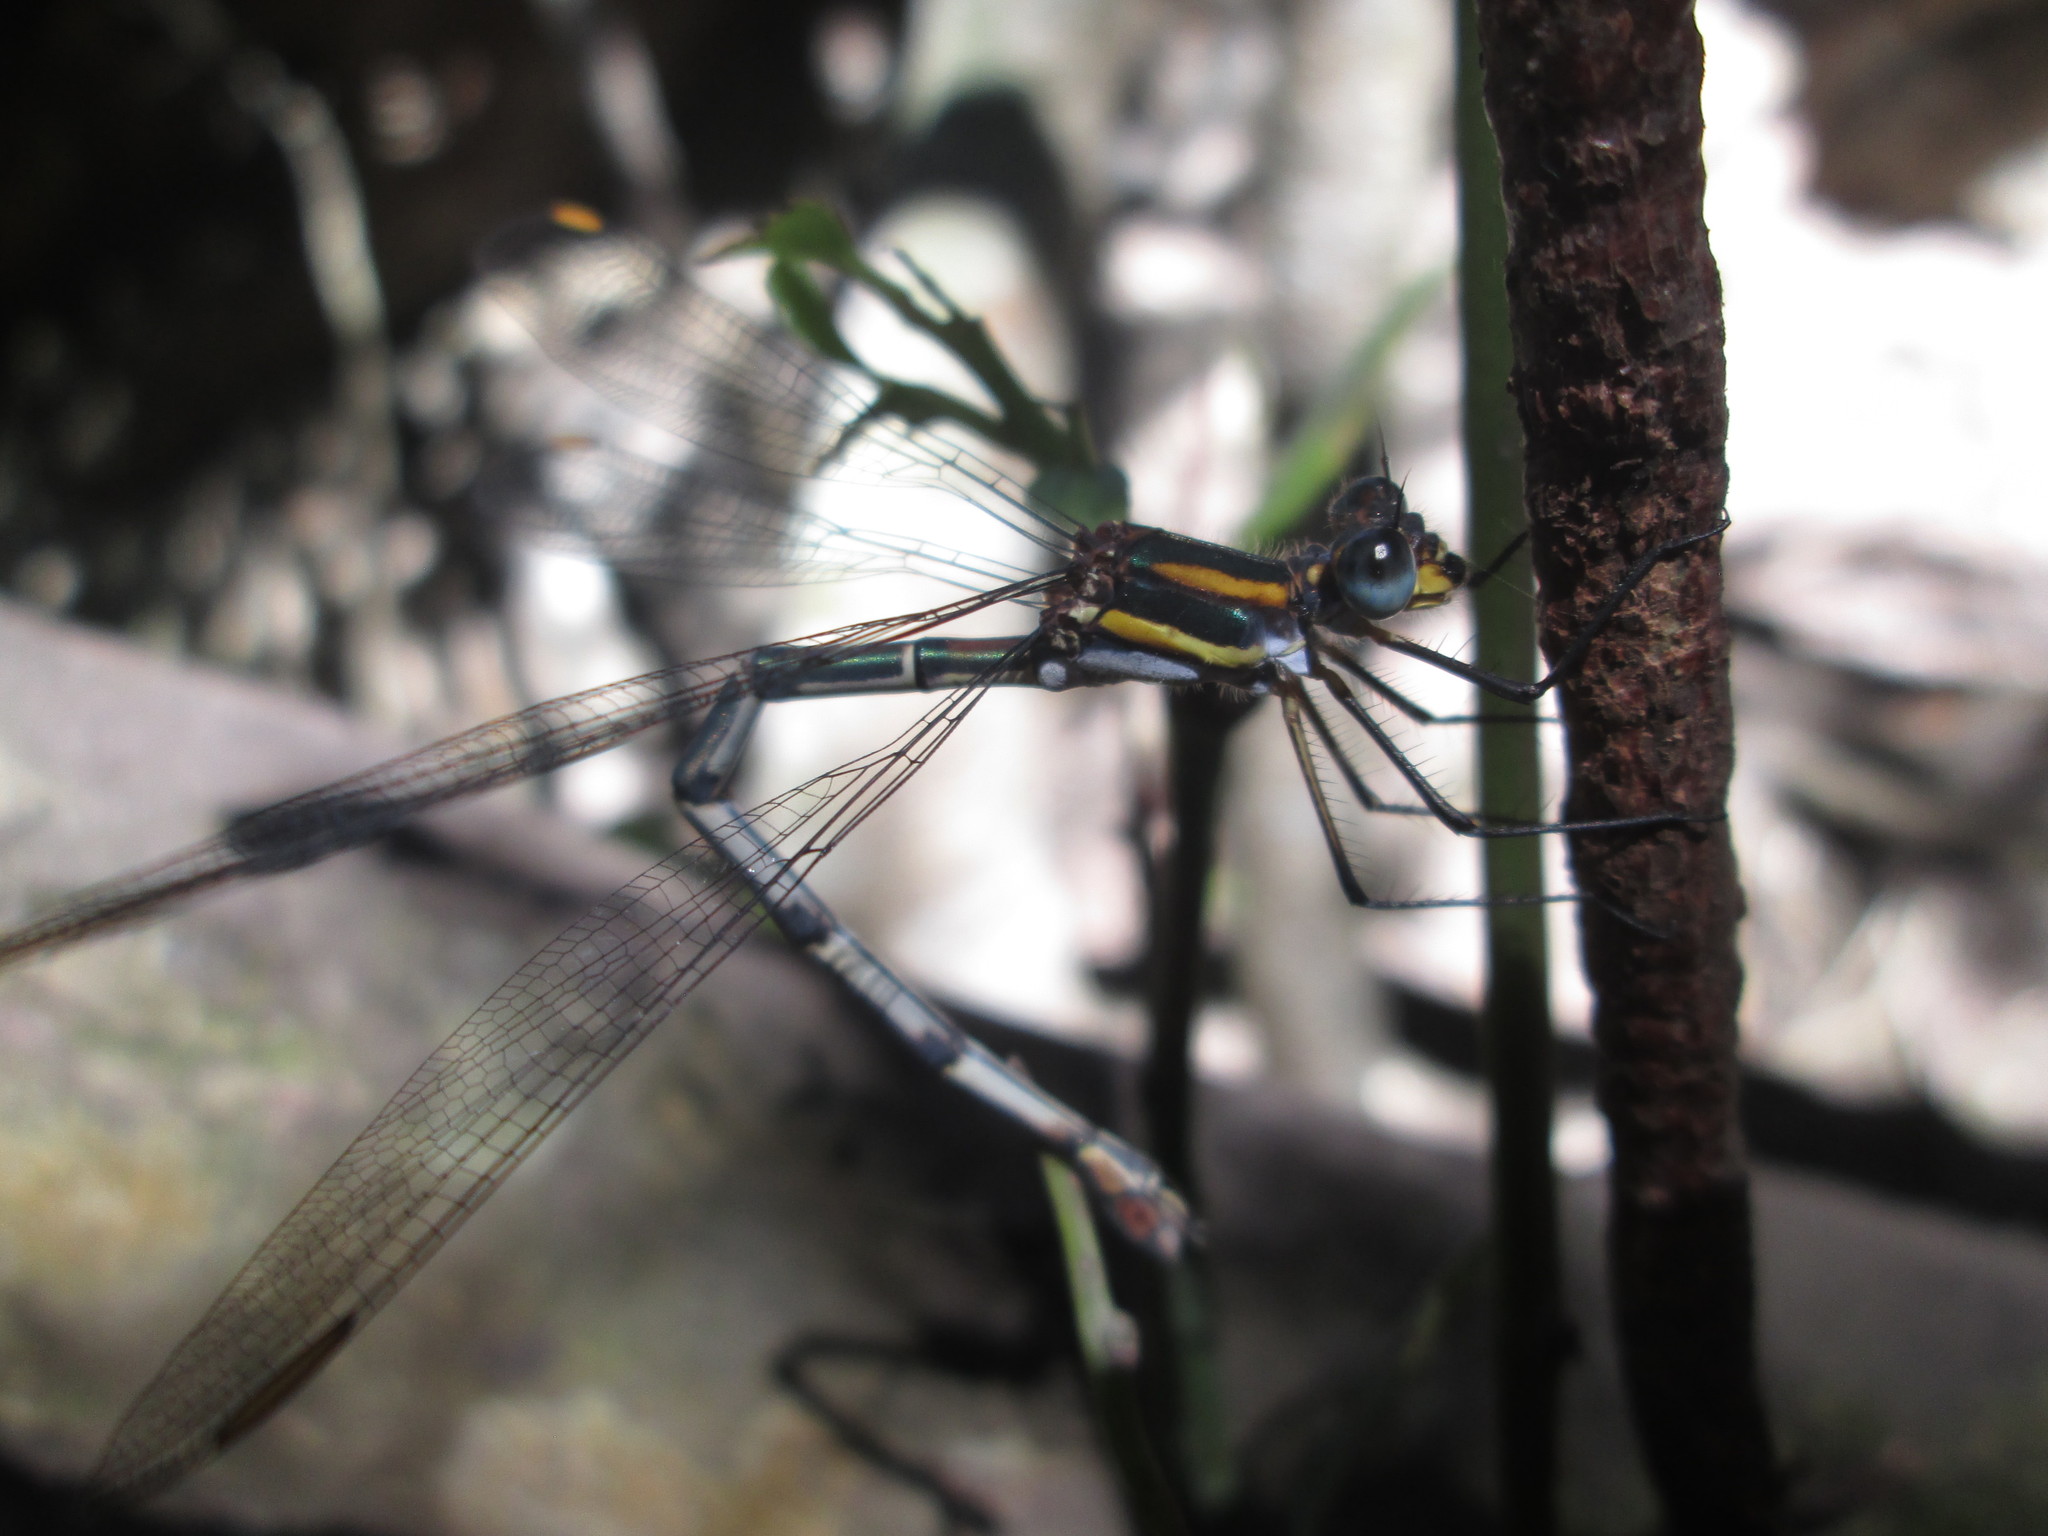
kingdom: Animalia
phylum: Arthropoda
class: Insecta
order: Odonata
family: Synlestidae
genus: Chlorolestes
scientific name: Chlorolestes conspicuus
